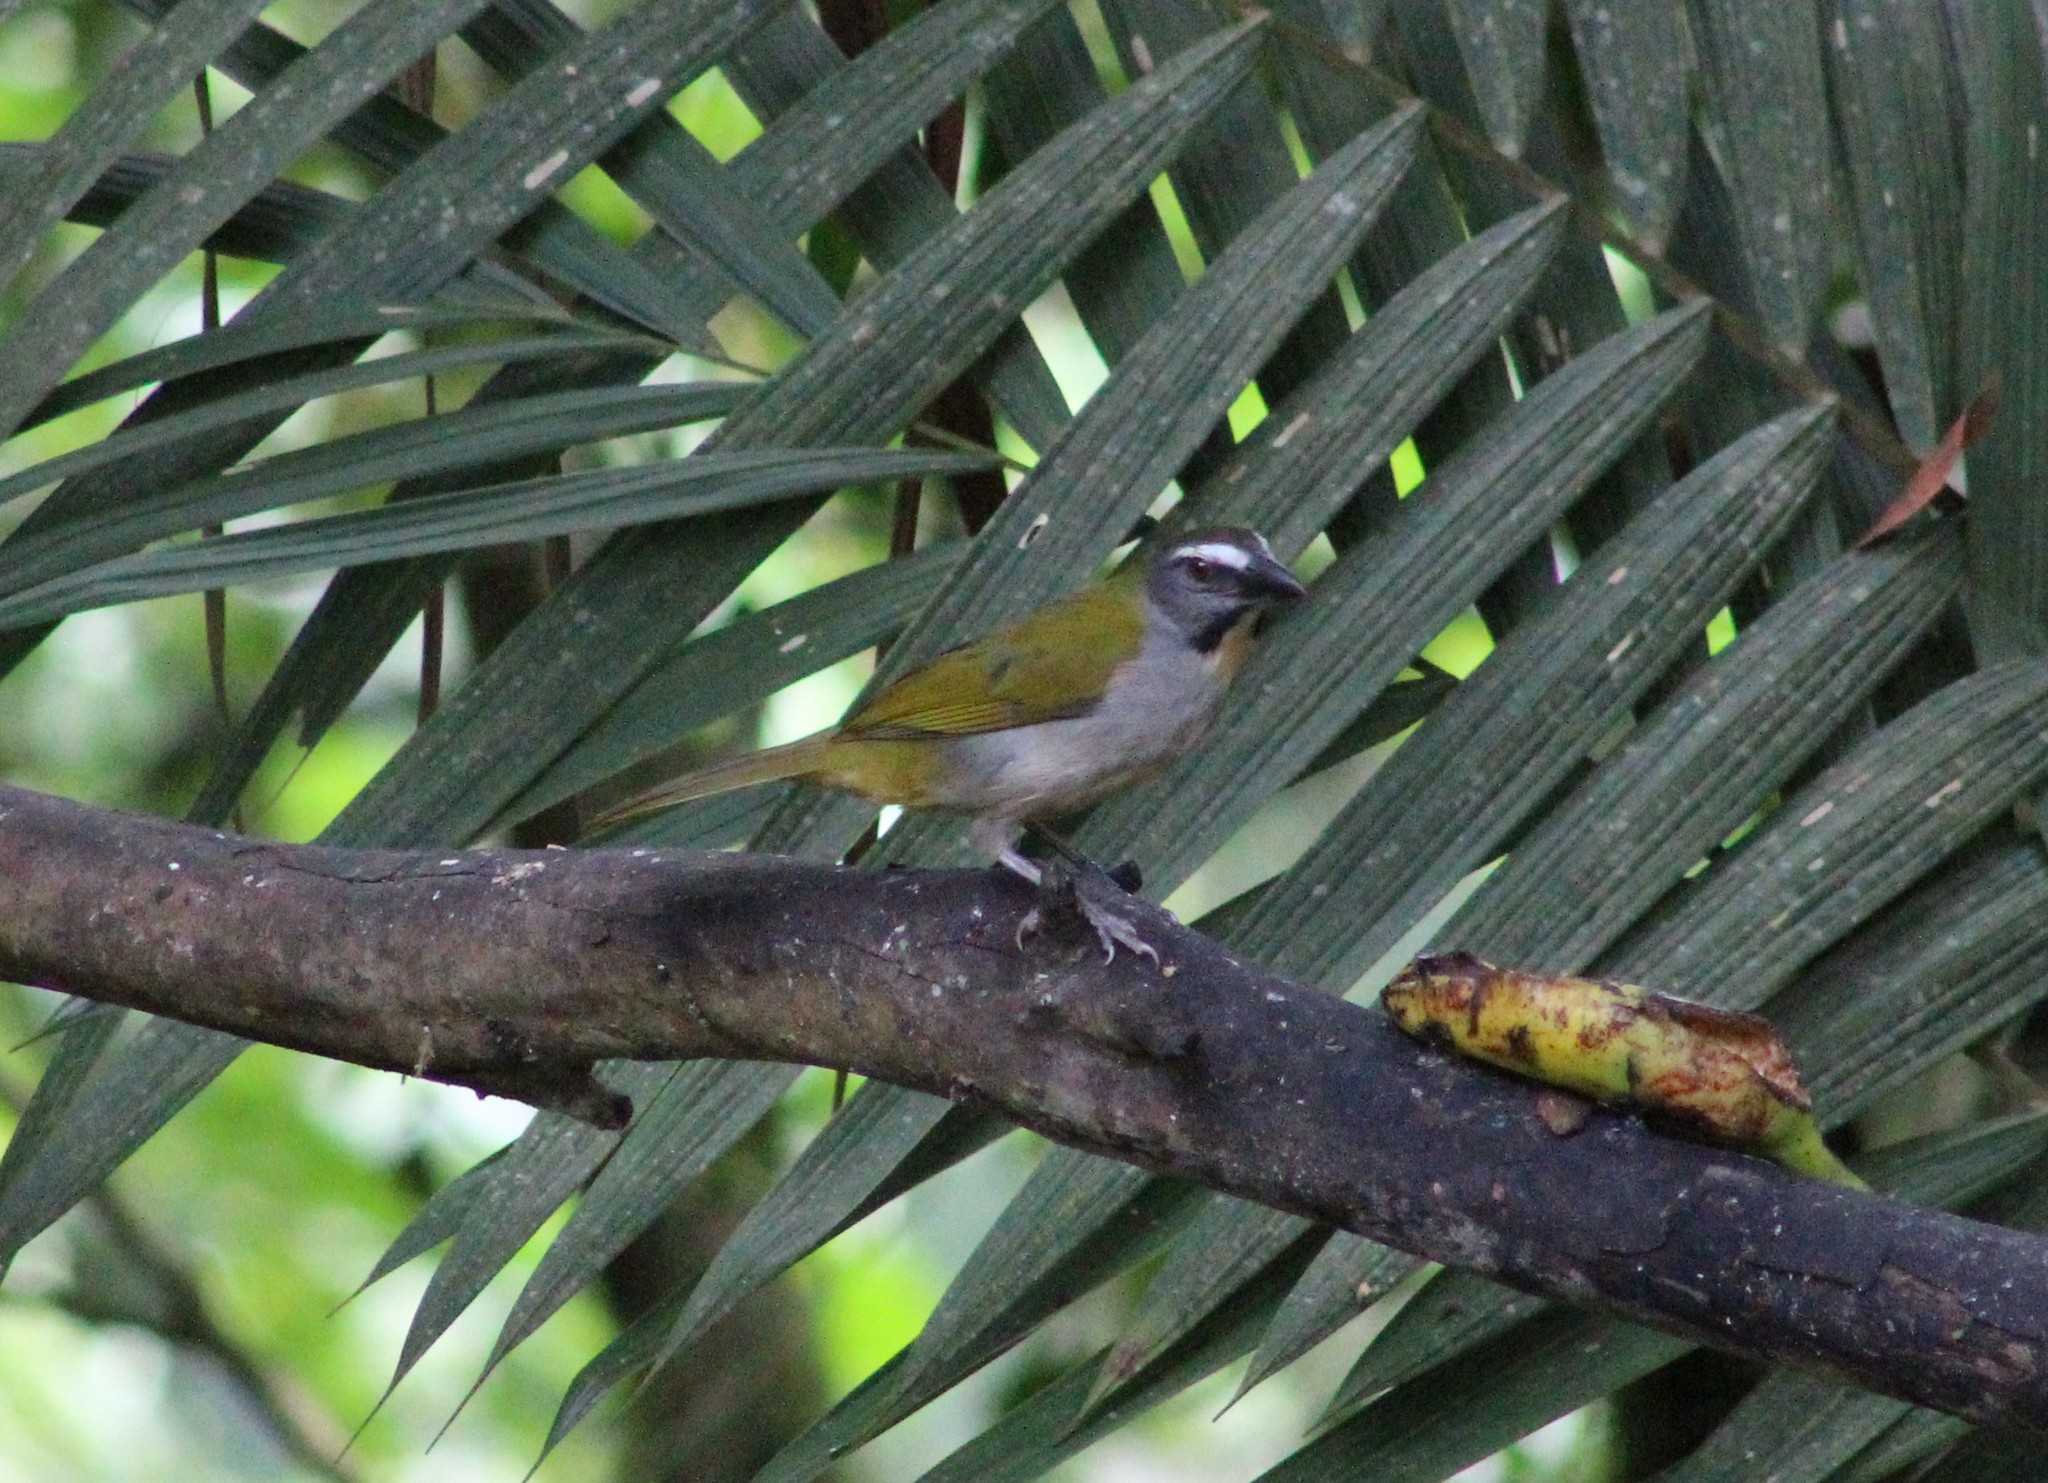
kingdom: Animalia
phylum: Chordata
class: Aves
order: Passeriformes
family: Thraupidae
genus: Saltator
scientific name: Saltator maximus
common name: Buff-throated saltator
